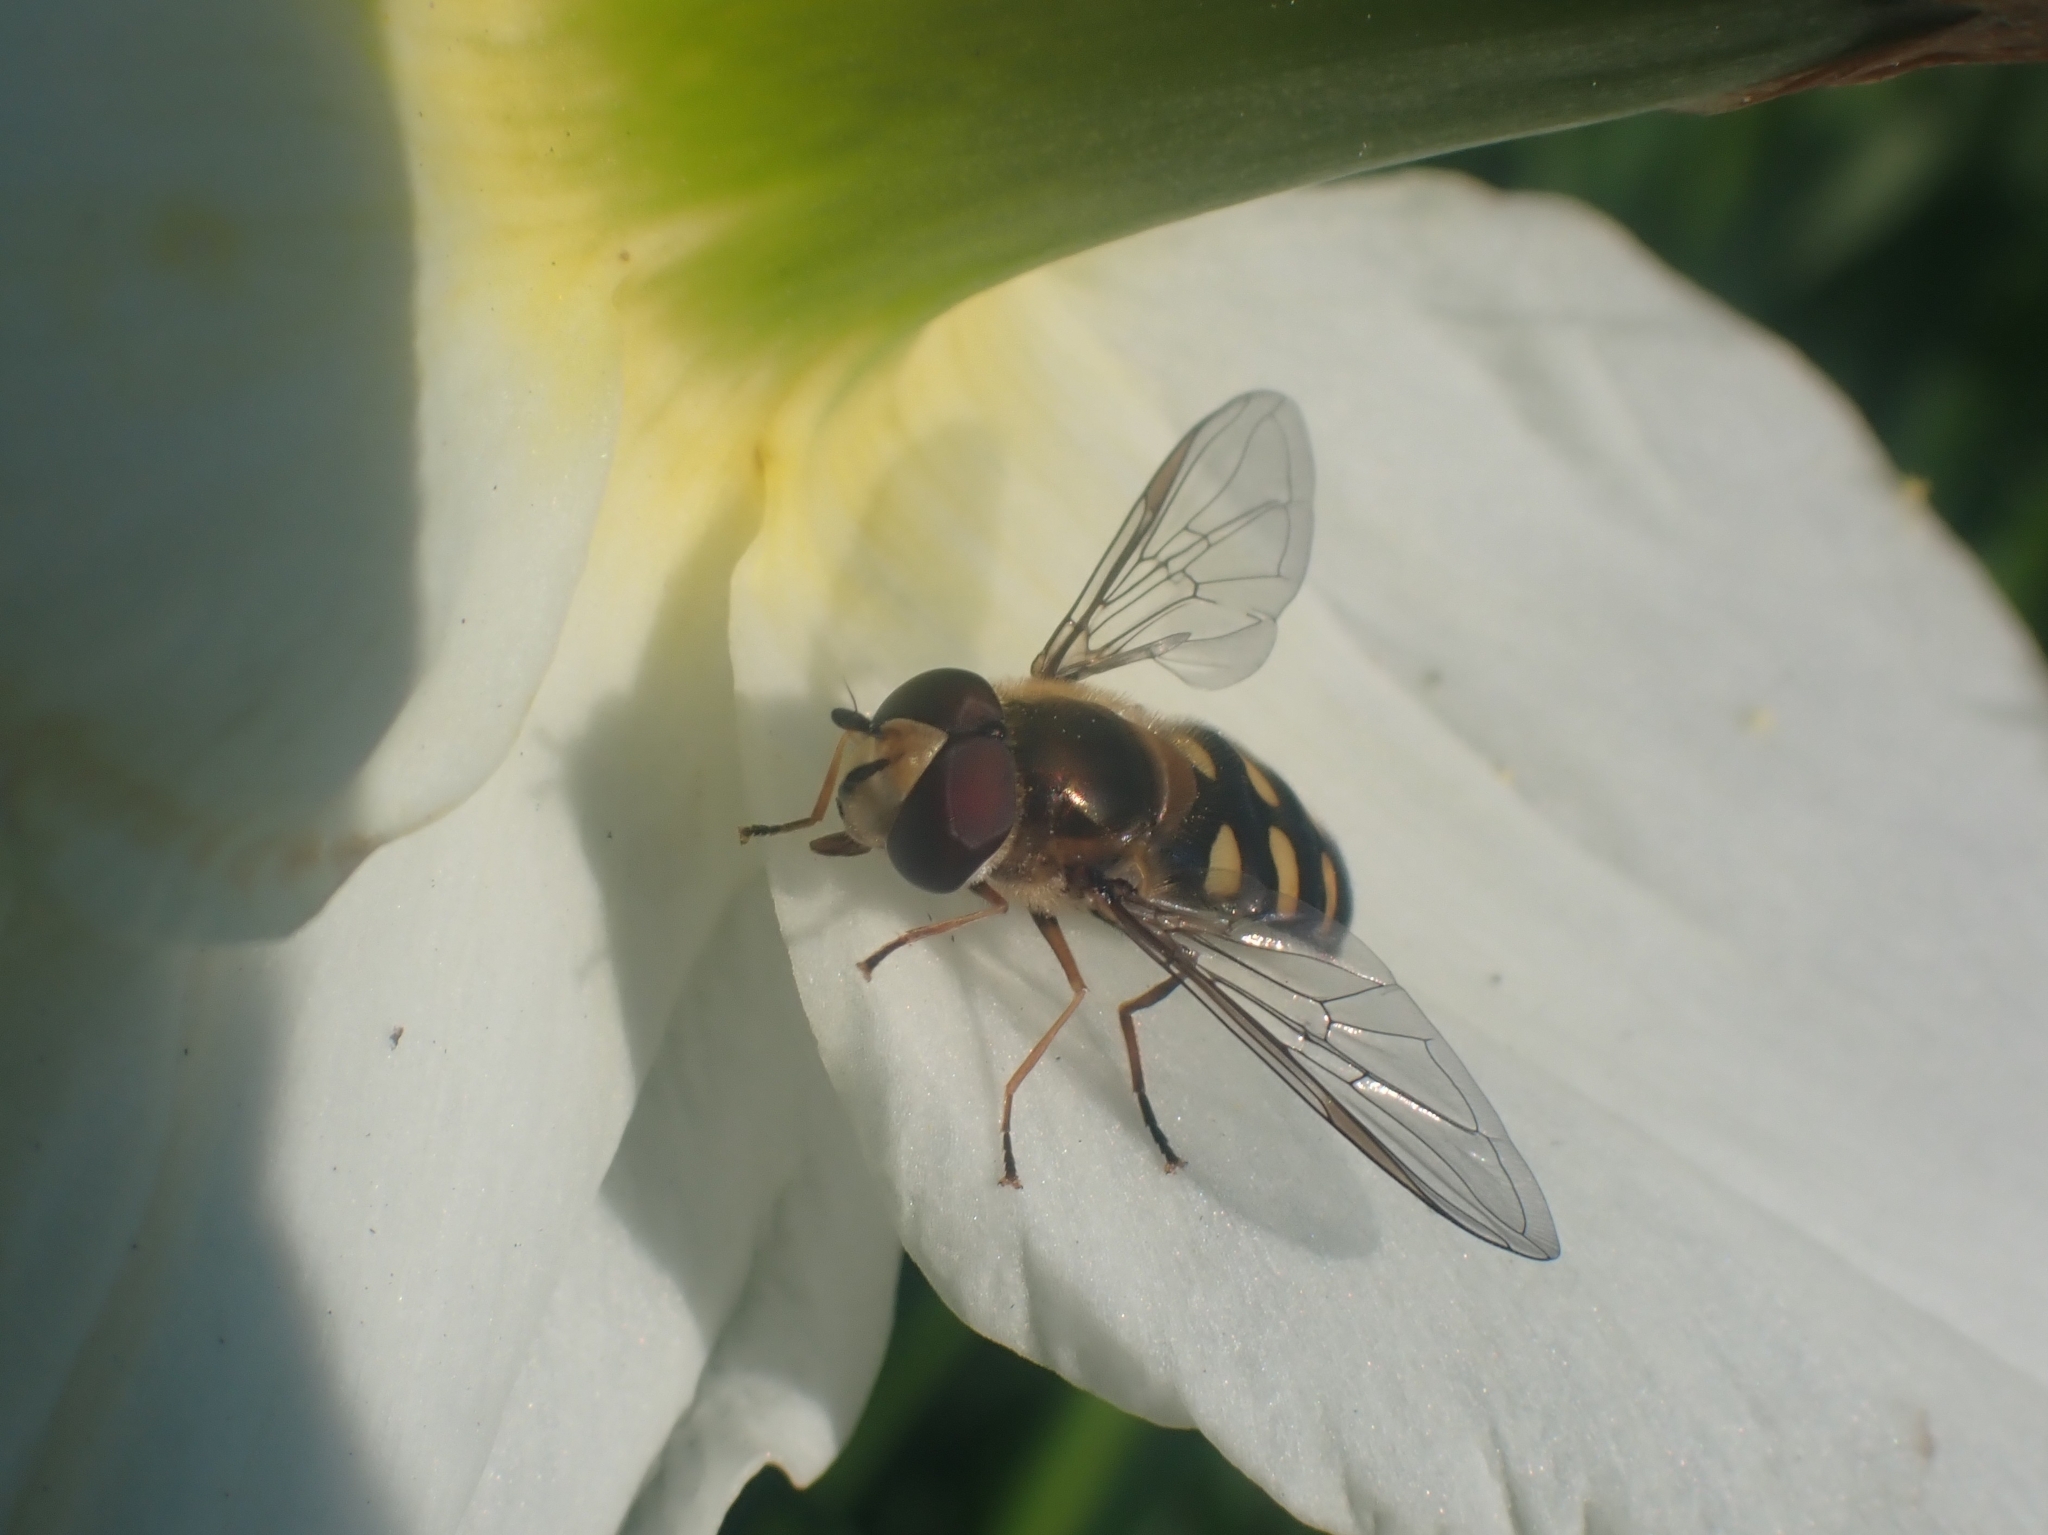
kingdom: Animalia
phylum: Arthropoda
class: Insecta
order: Diptera
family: Syrphidae
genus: Eupeodes
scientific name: Eupeodes
